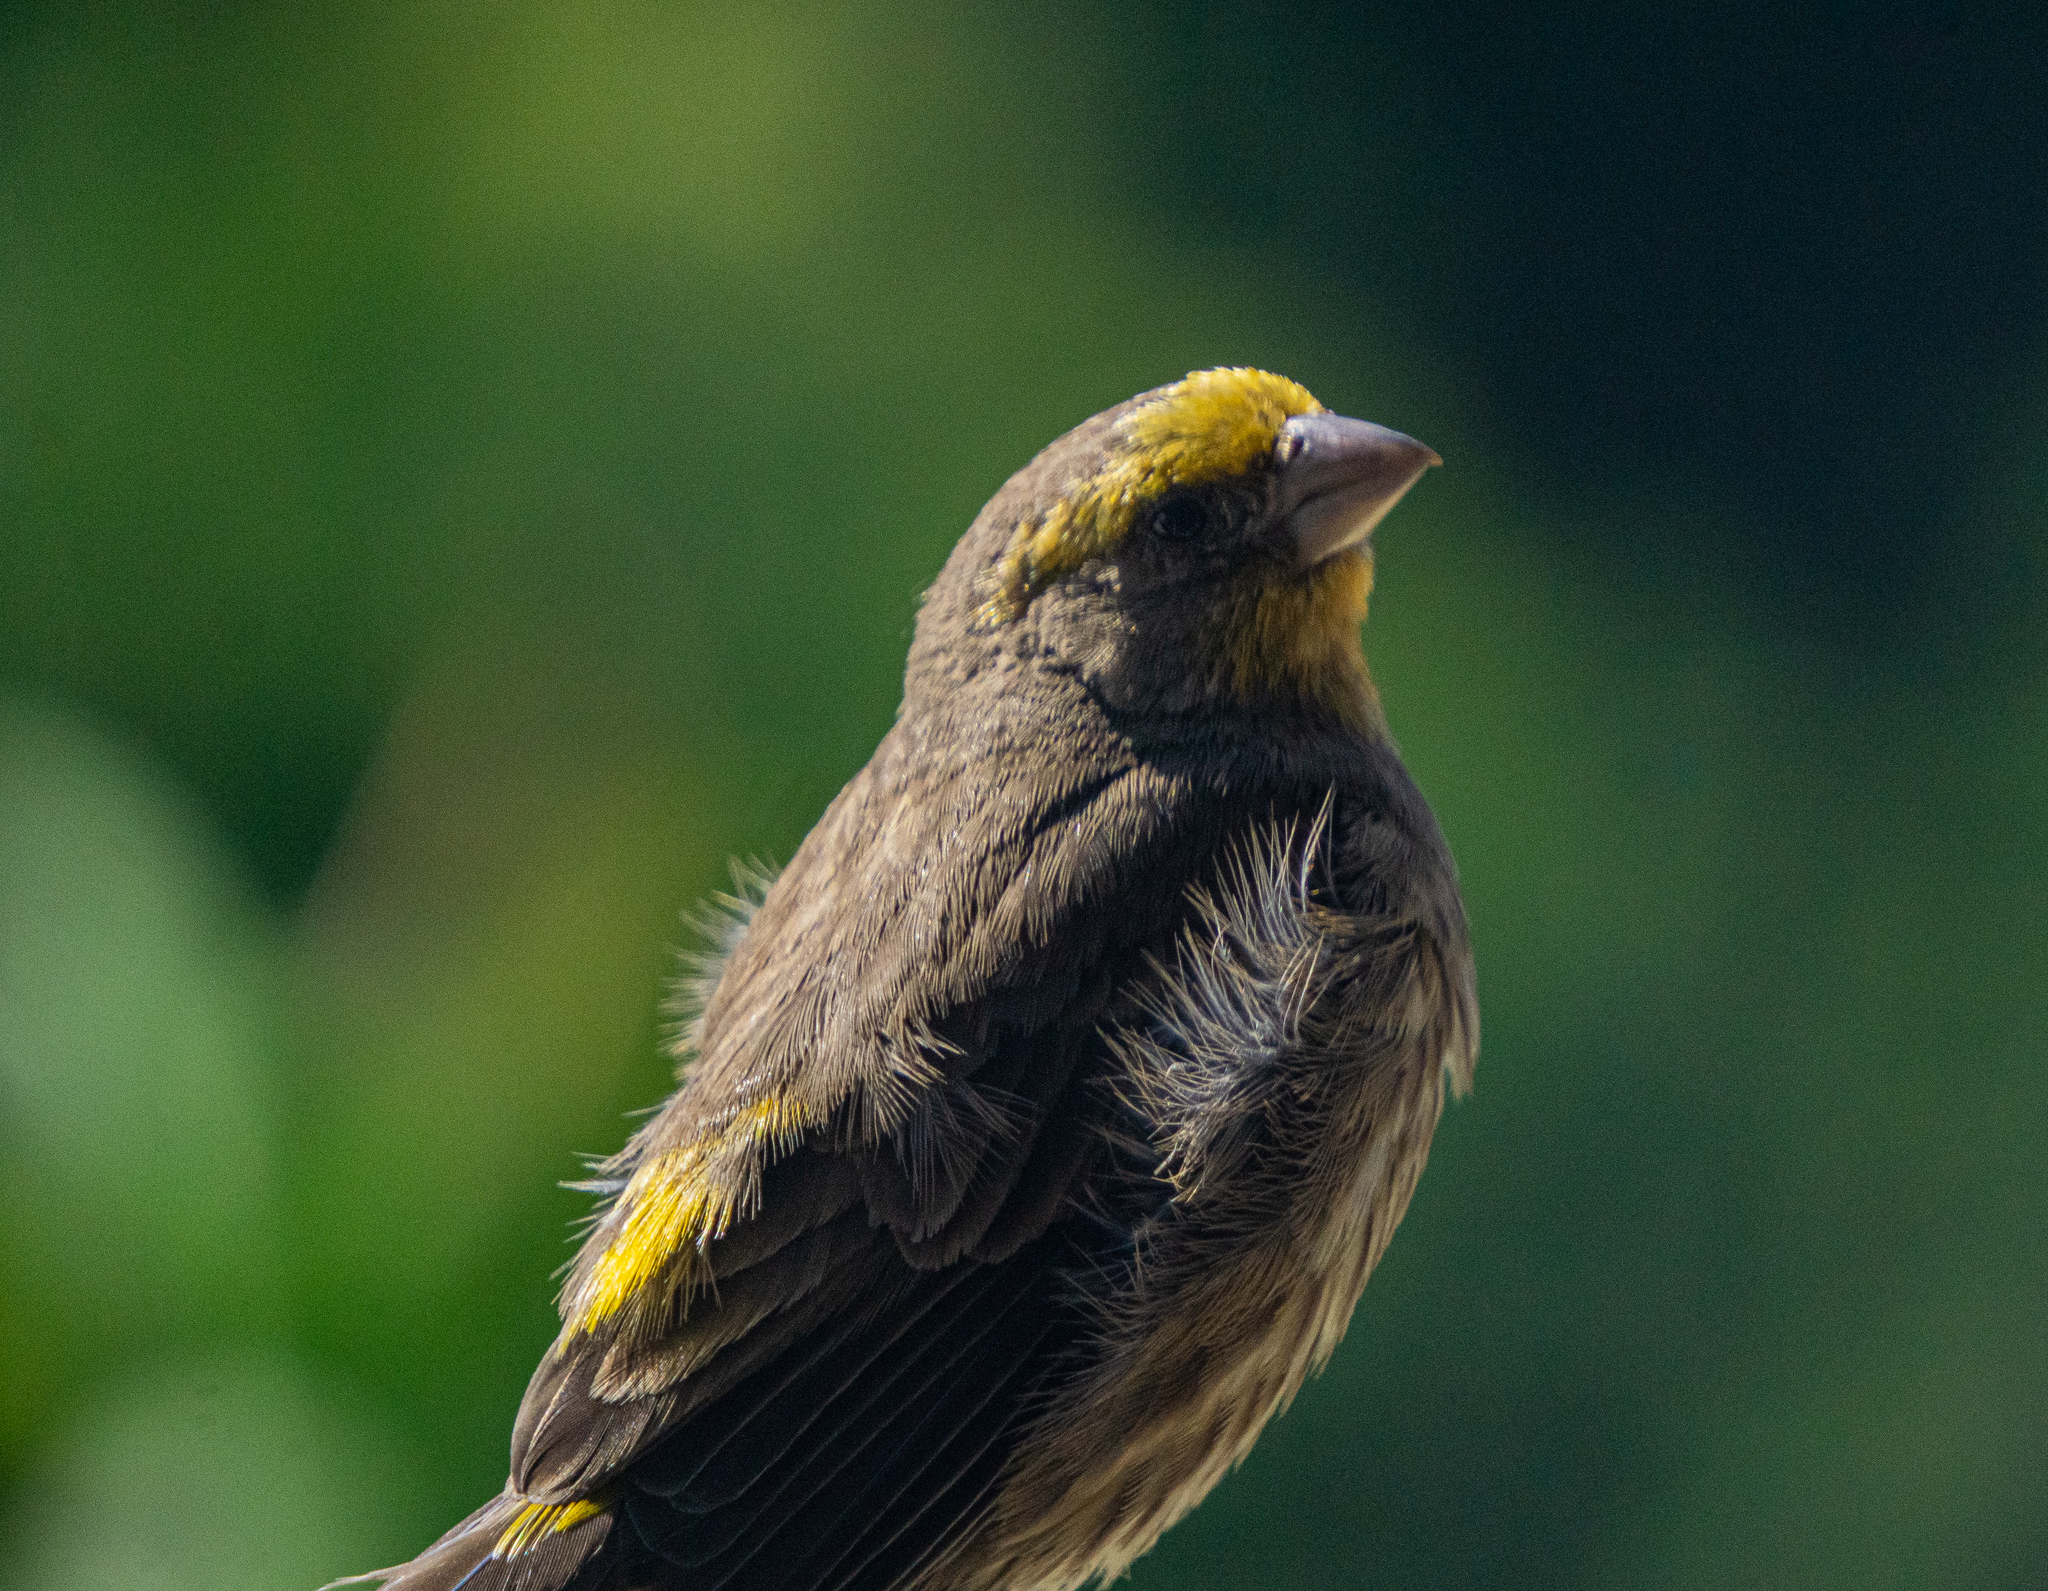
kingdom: Animalia
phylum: Chordata
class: Aves
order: Passeriformes
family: Fringillidae
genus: Haemorhous
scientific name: Haemorhous mexicanus
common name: House finch
